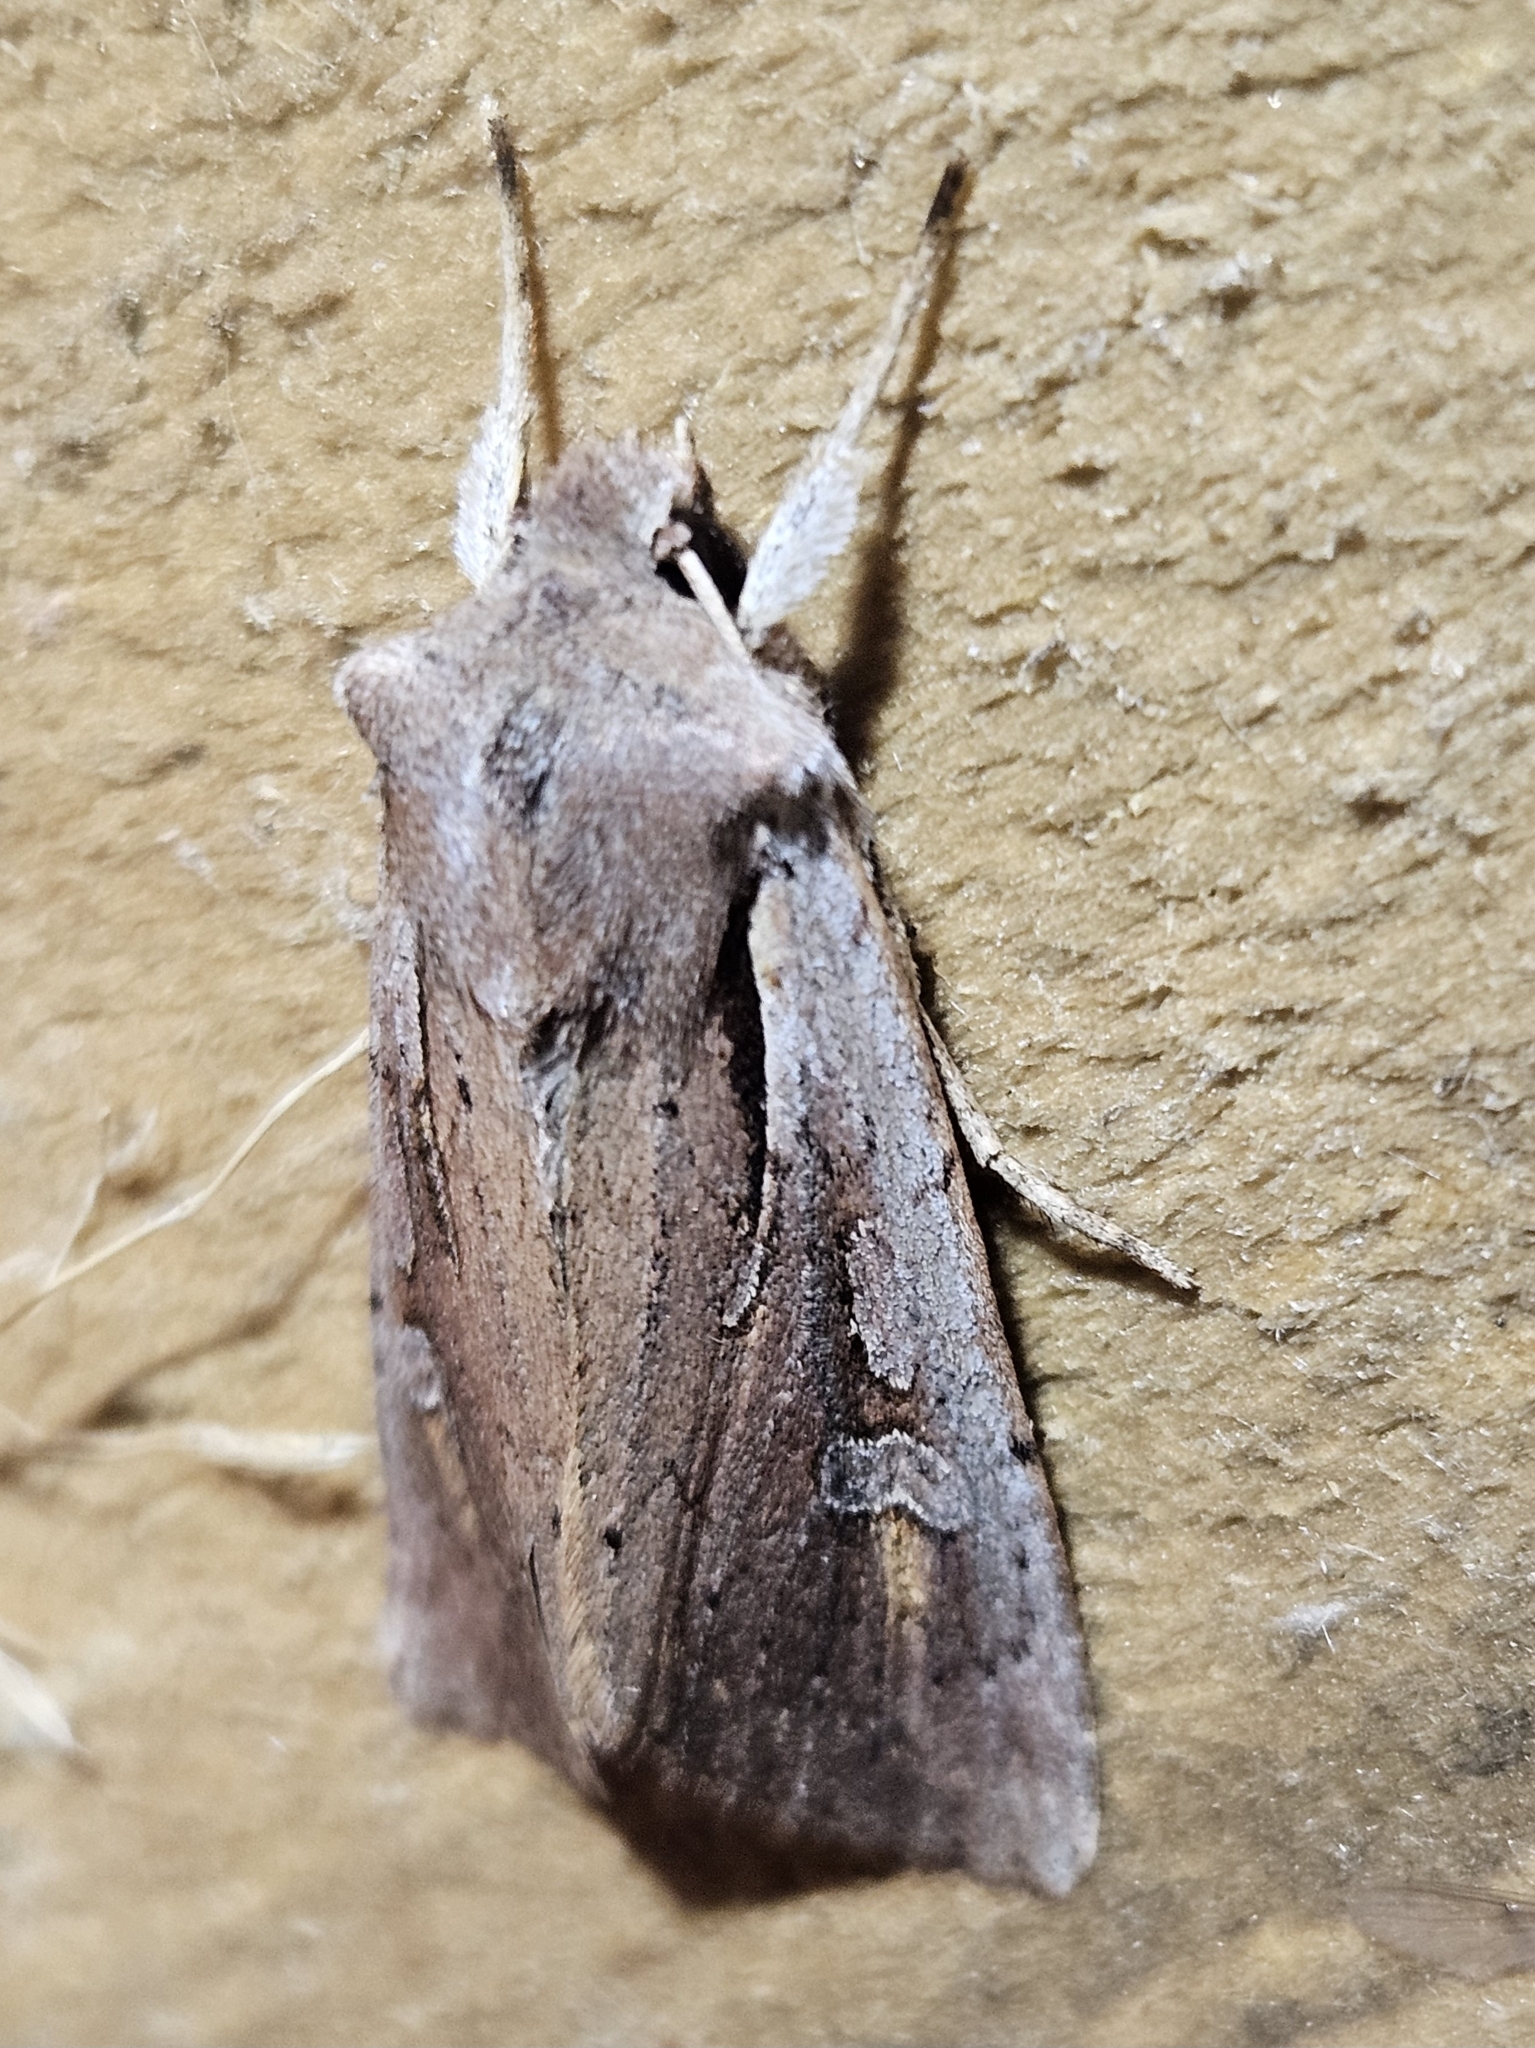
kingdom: Animalia
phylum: Arthropoda
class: Insecta
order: Lepidoptera
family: Noctuidae
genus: Ichneutica
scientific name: Ichneutica atristriga
